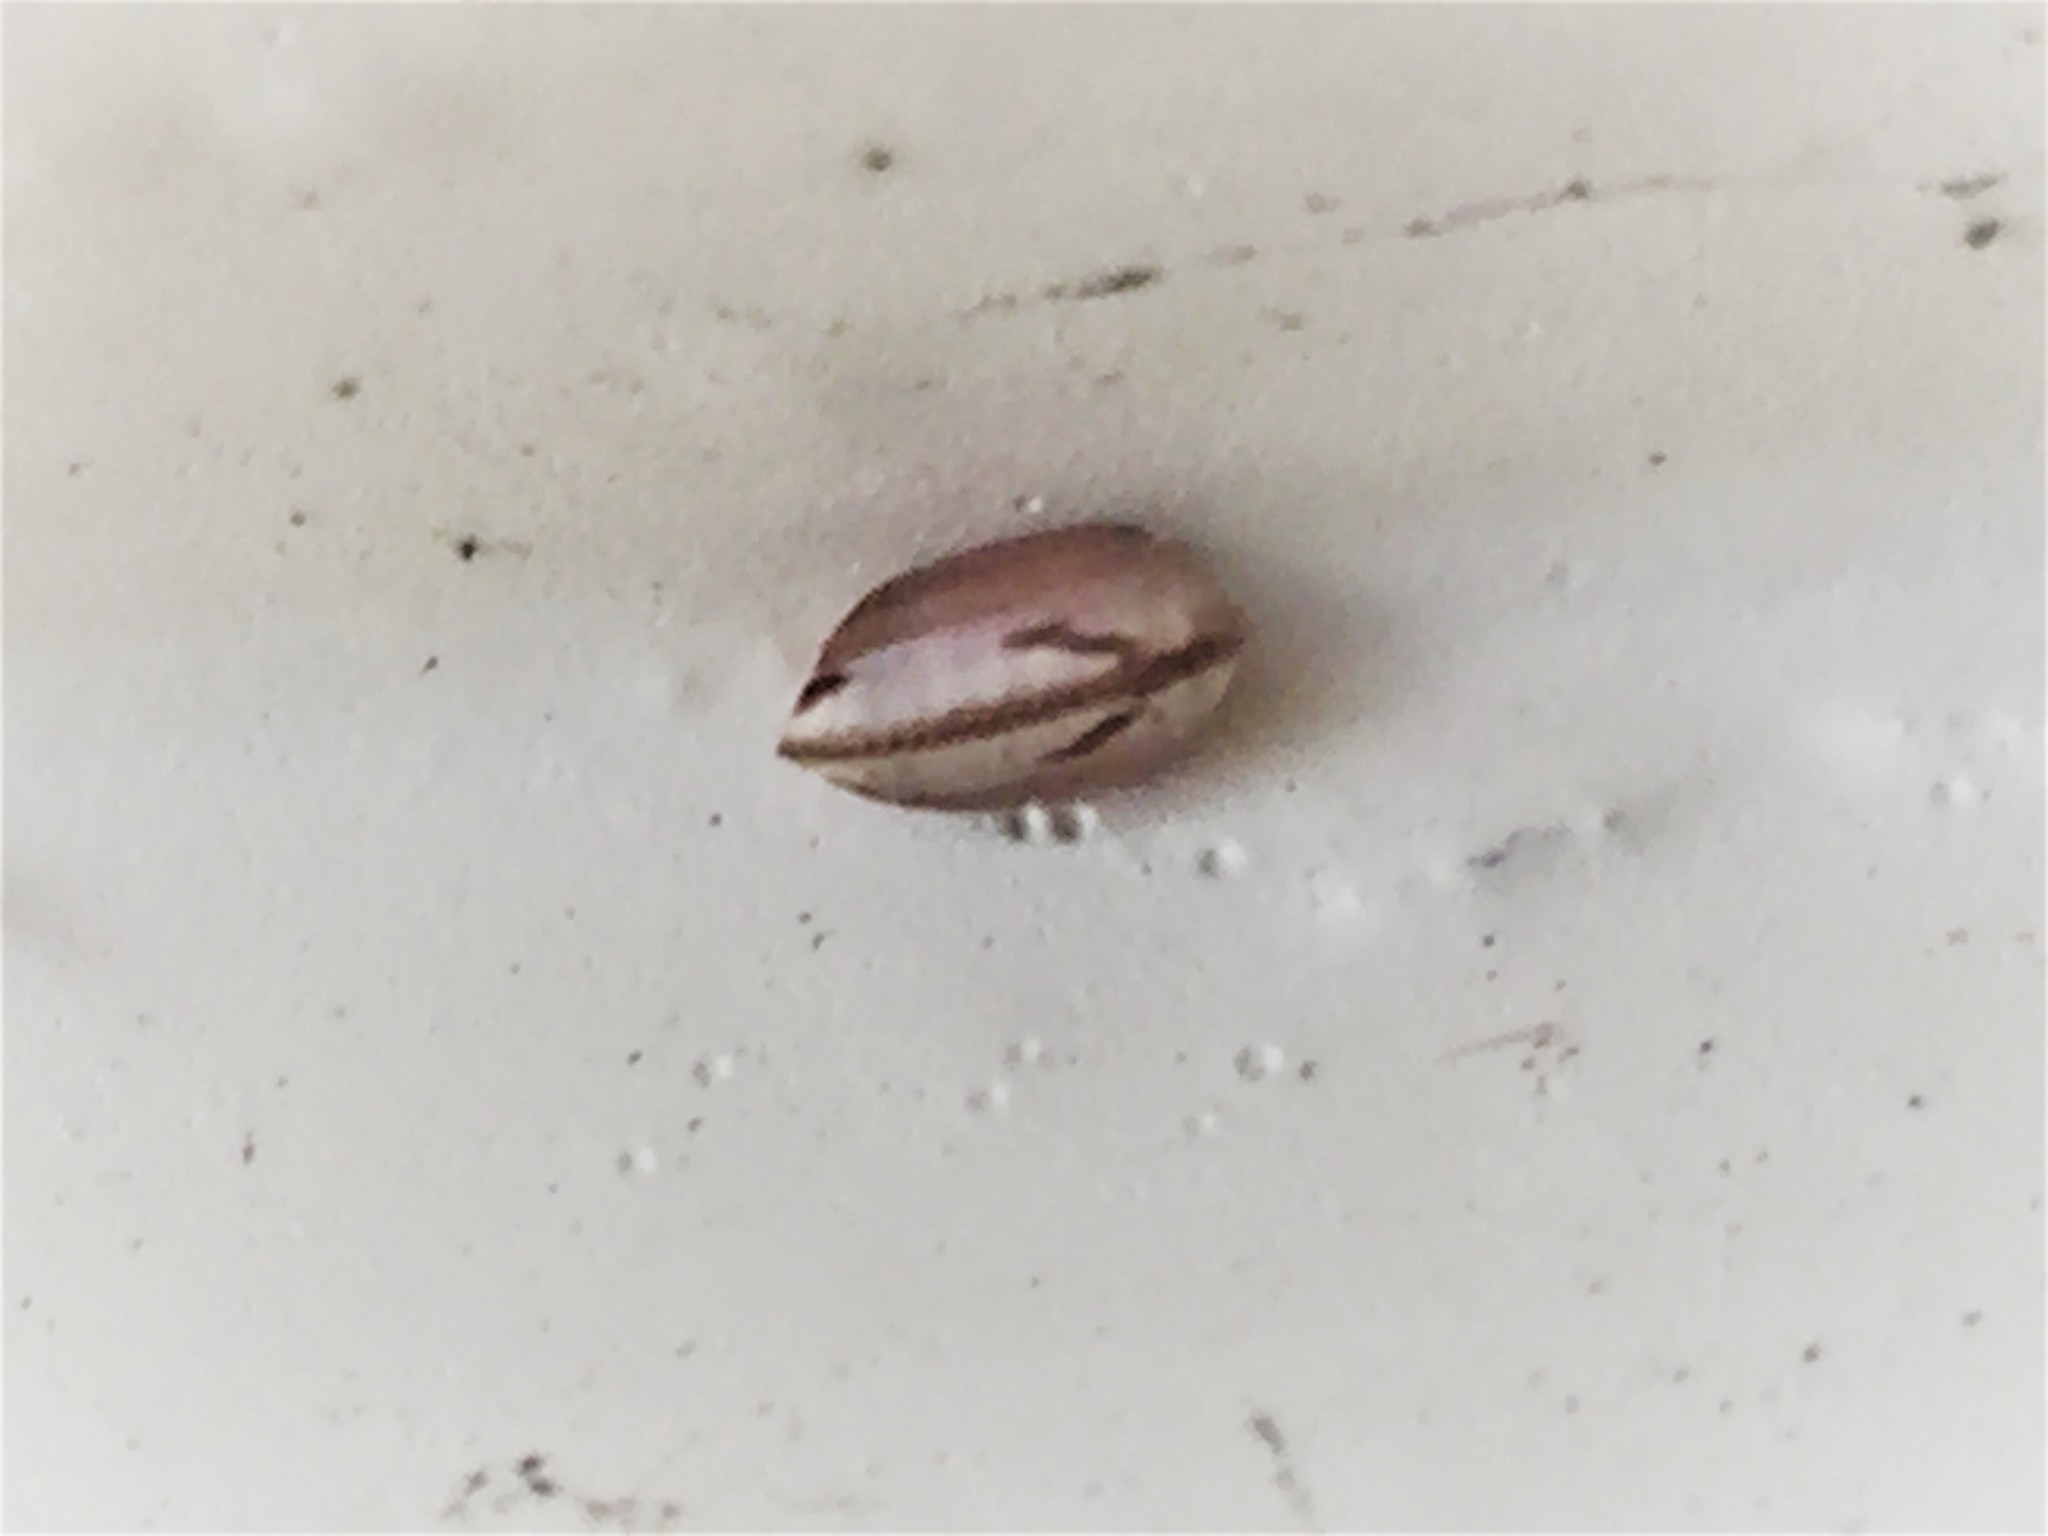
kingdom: Animalia
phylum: Arthropoda
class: Insecta
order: Blattodea
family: Ectobiidae
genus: Balta
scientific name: Balta bicolor
